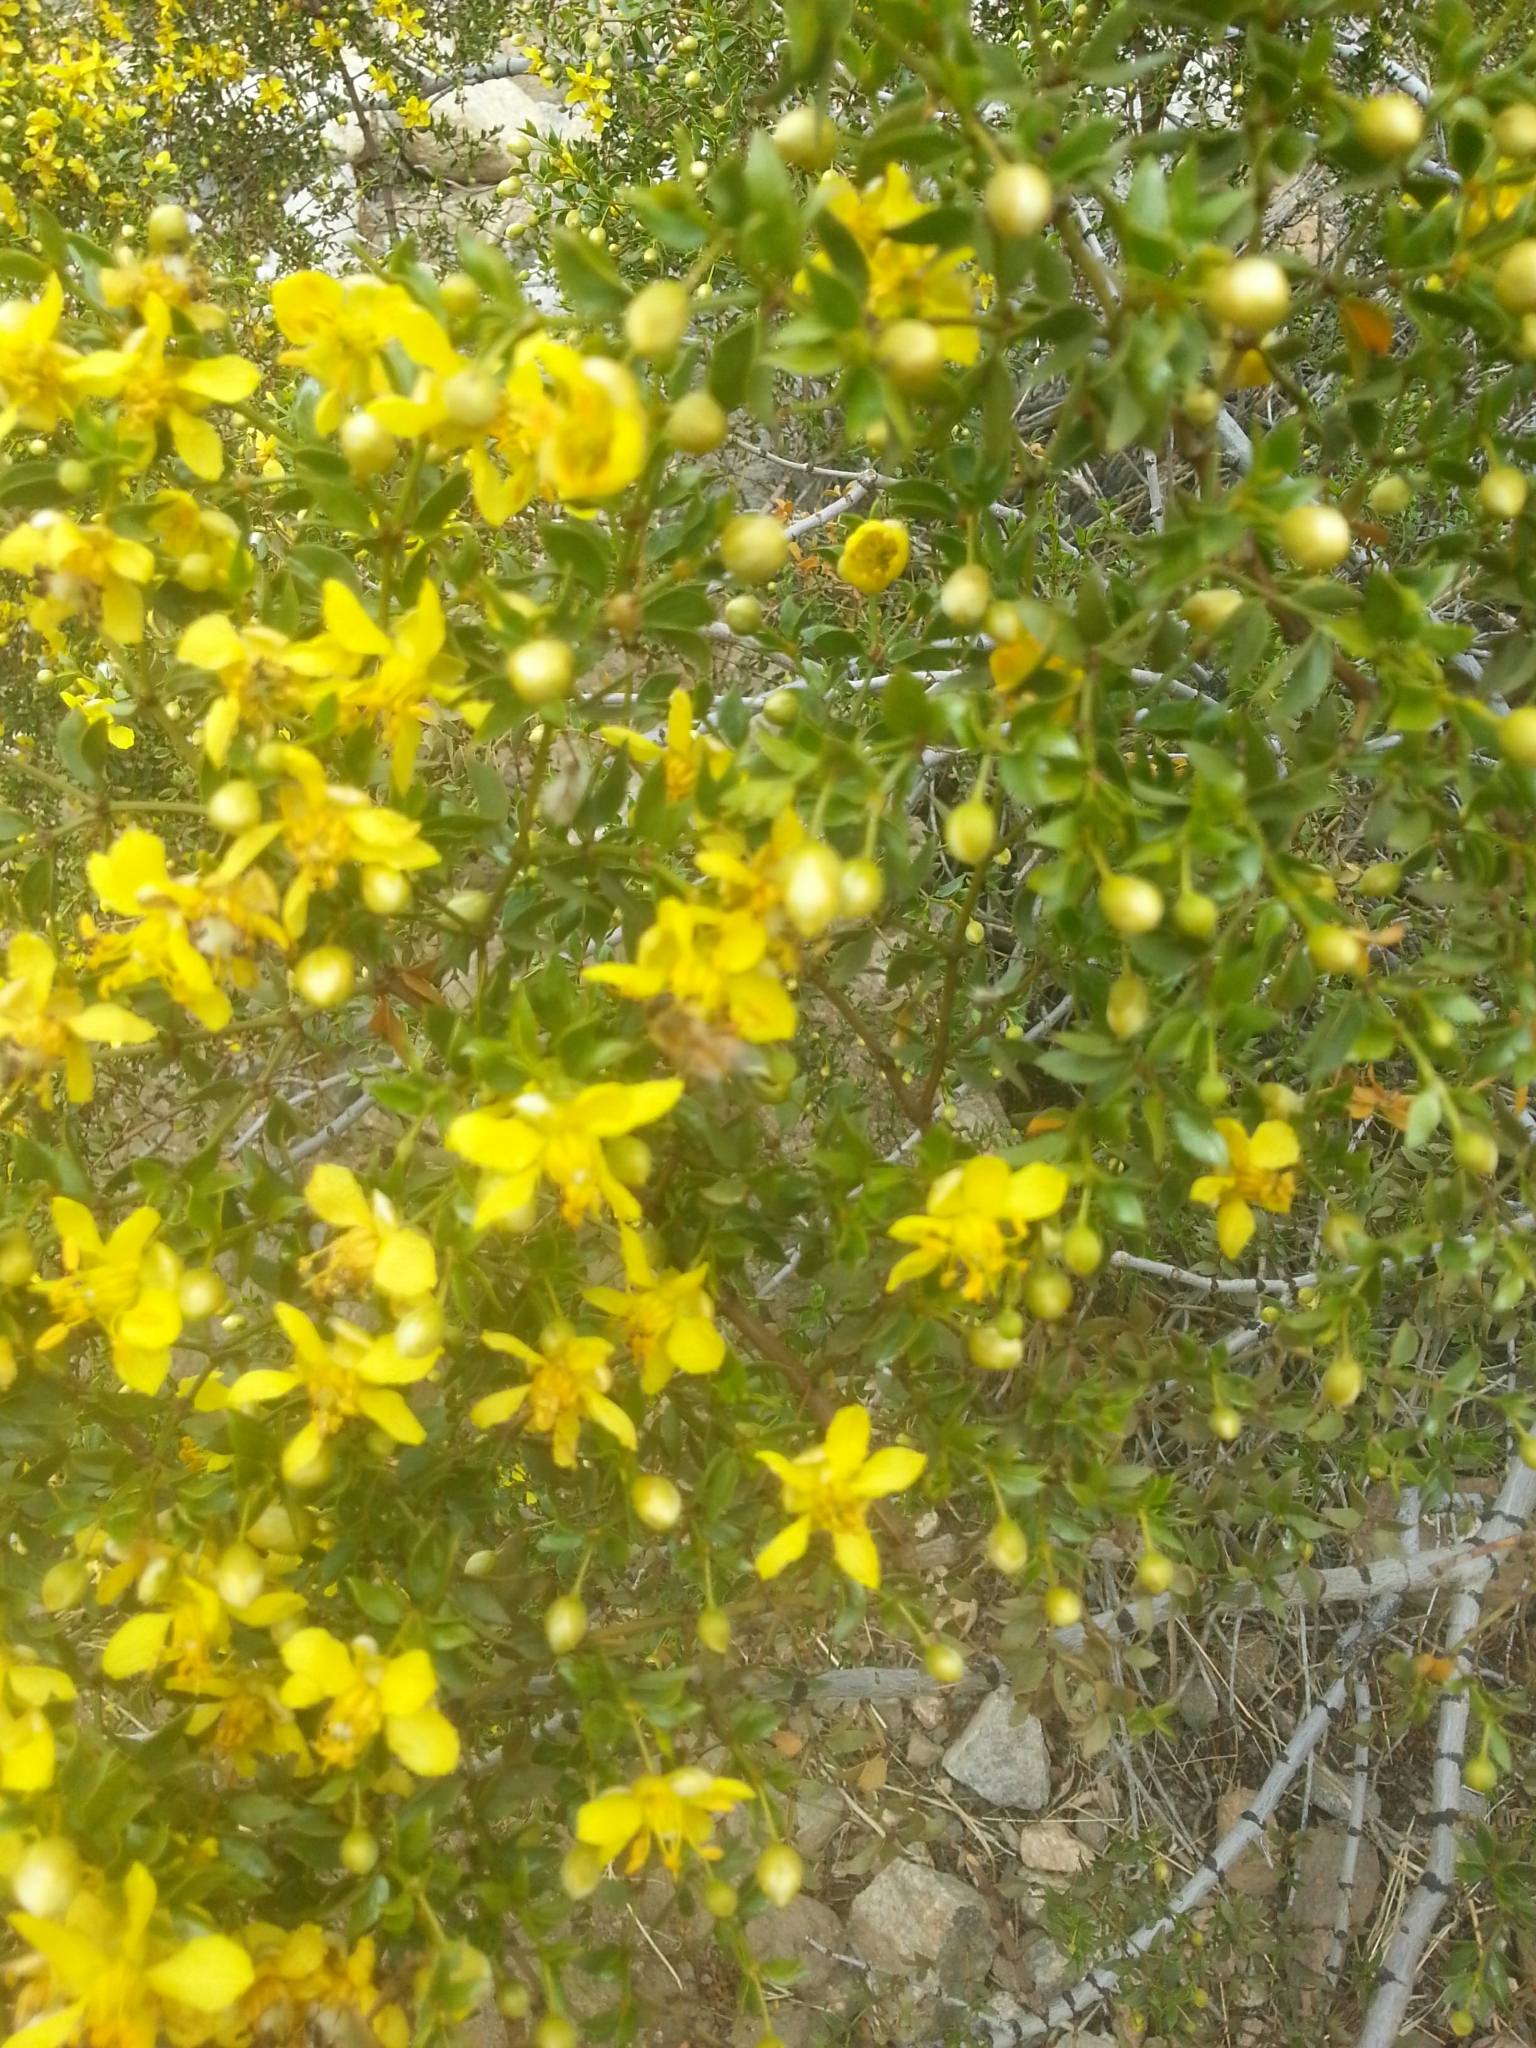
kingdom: Plantae
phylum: Tracheophyta
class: Magnoliopsida
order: Zygophyllales
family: Zygophyllaceae
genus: Larrea
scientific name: Larrea tridentata
